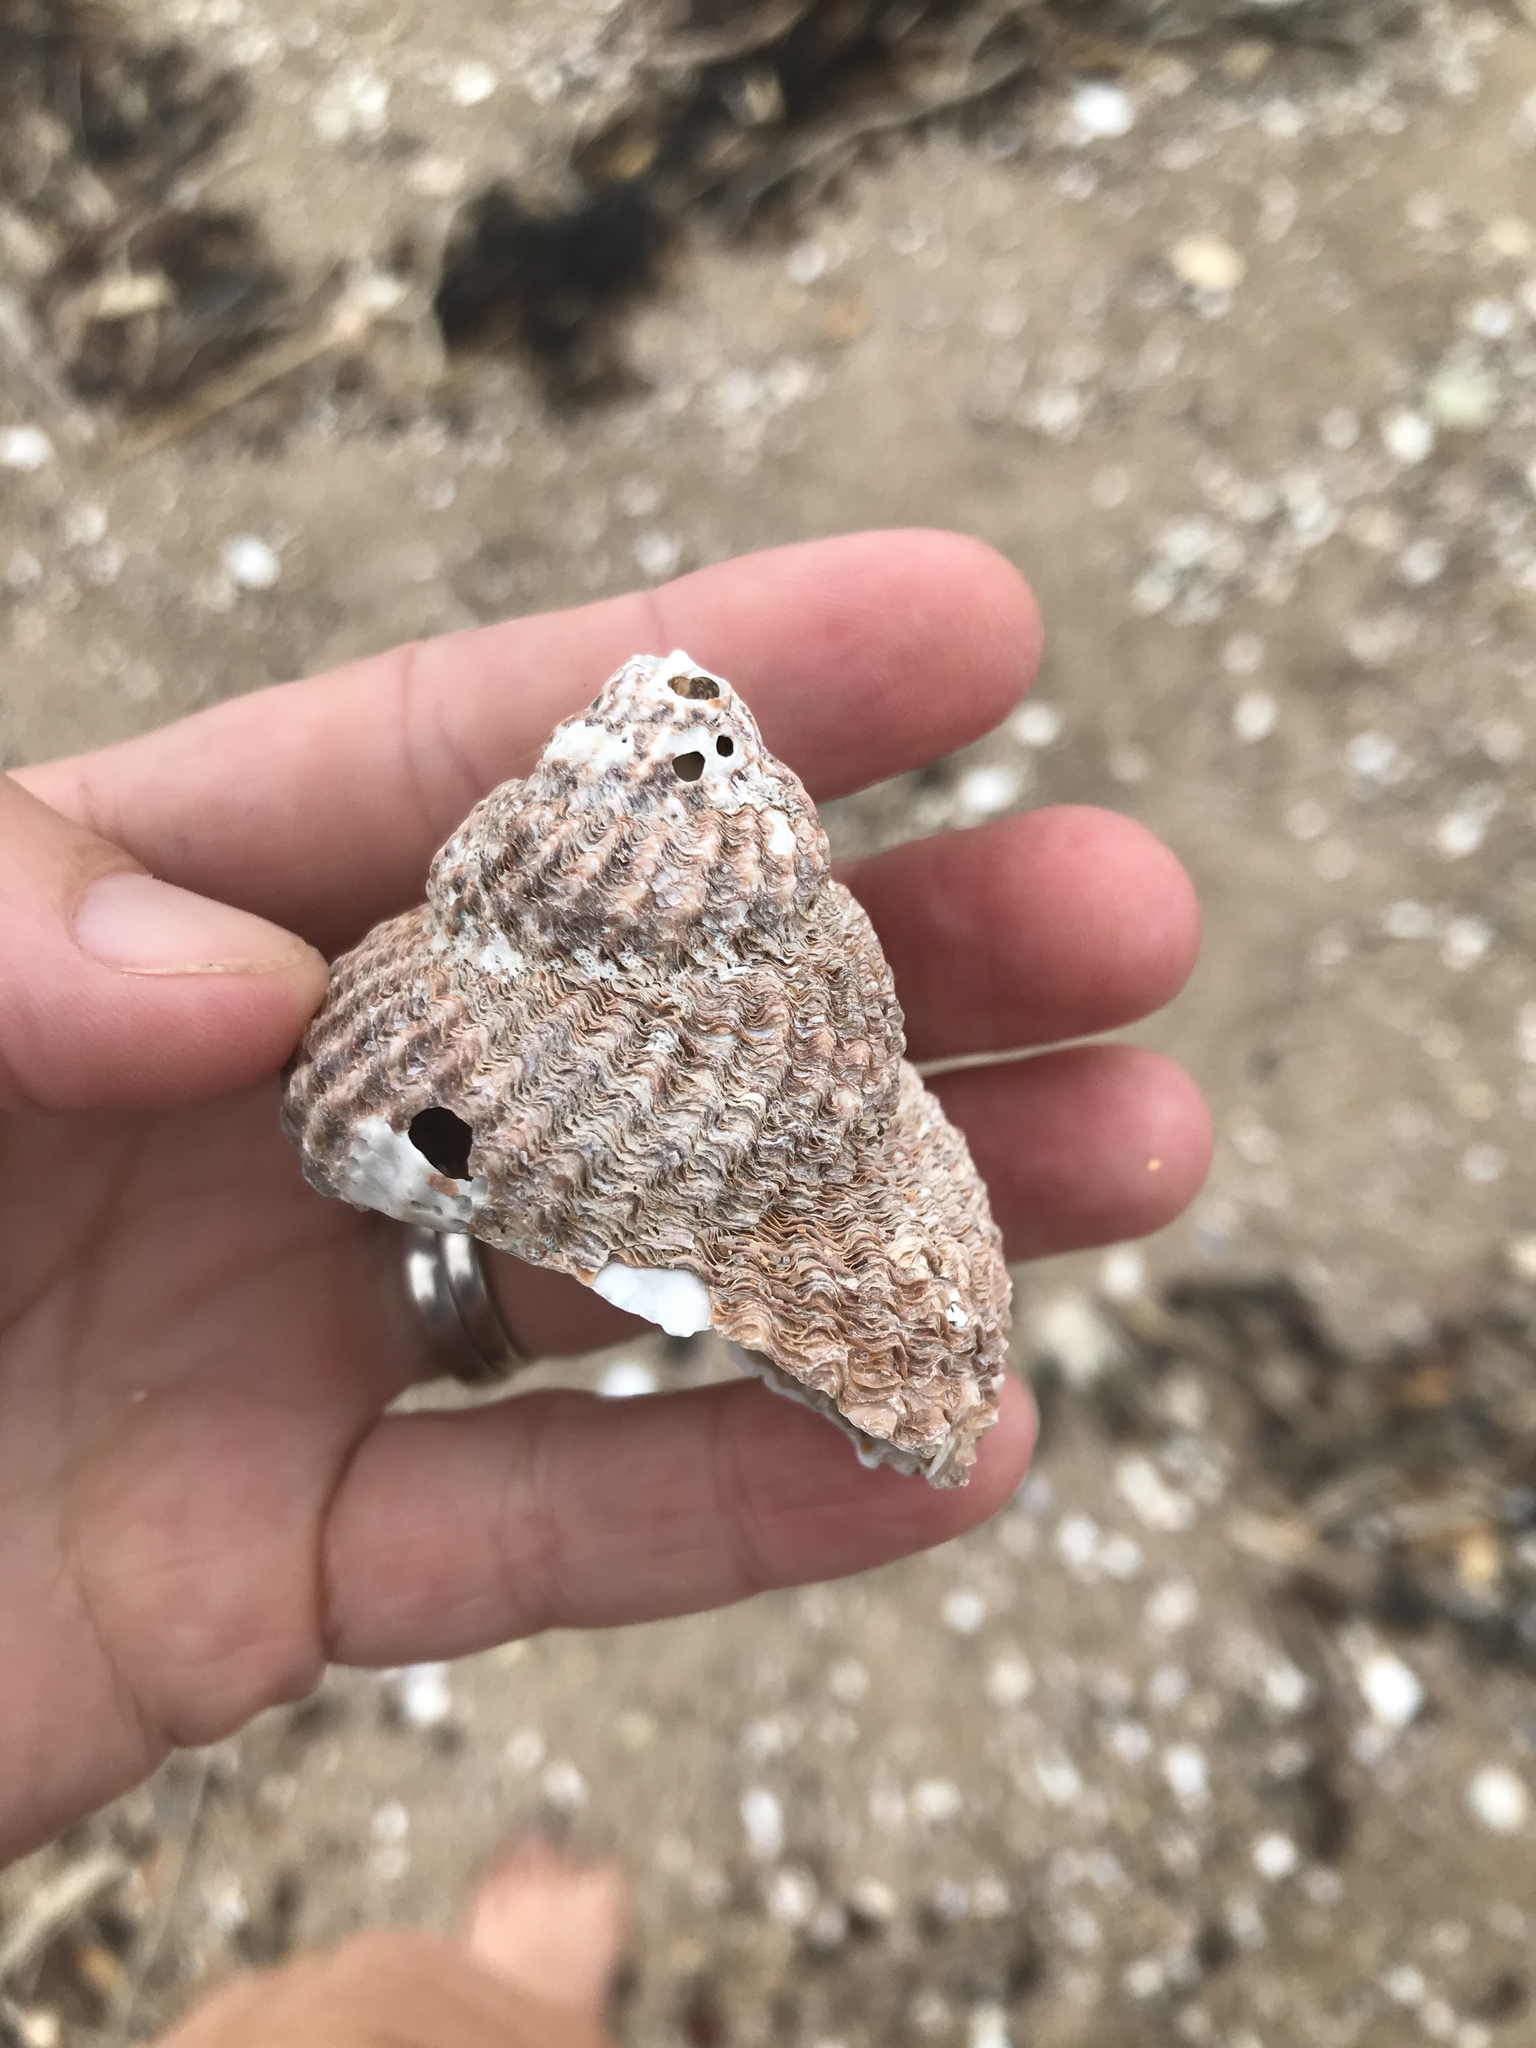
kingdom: Animalia
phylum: Mollusca
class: Gastropoda
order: Trochida
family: Turbinidae
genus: Cookia
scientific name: Cookia sulcata
